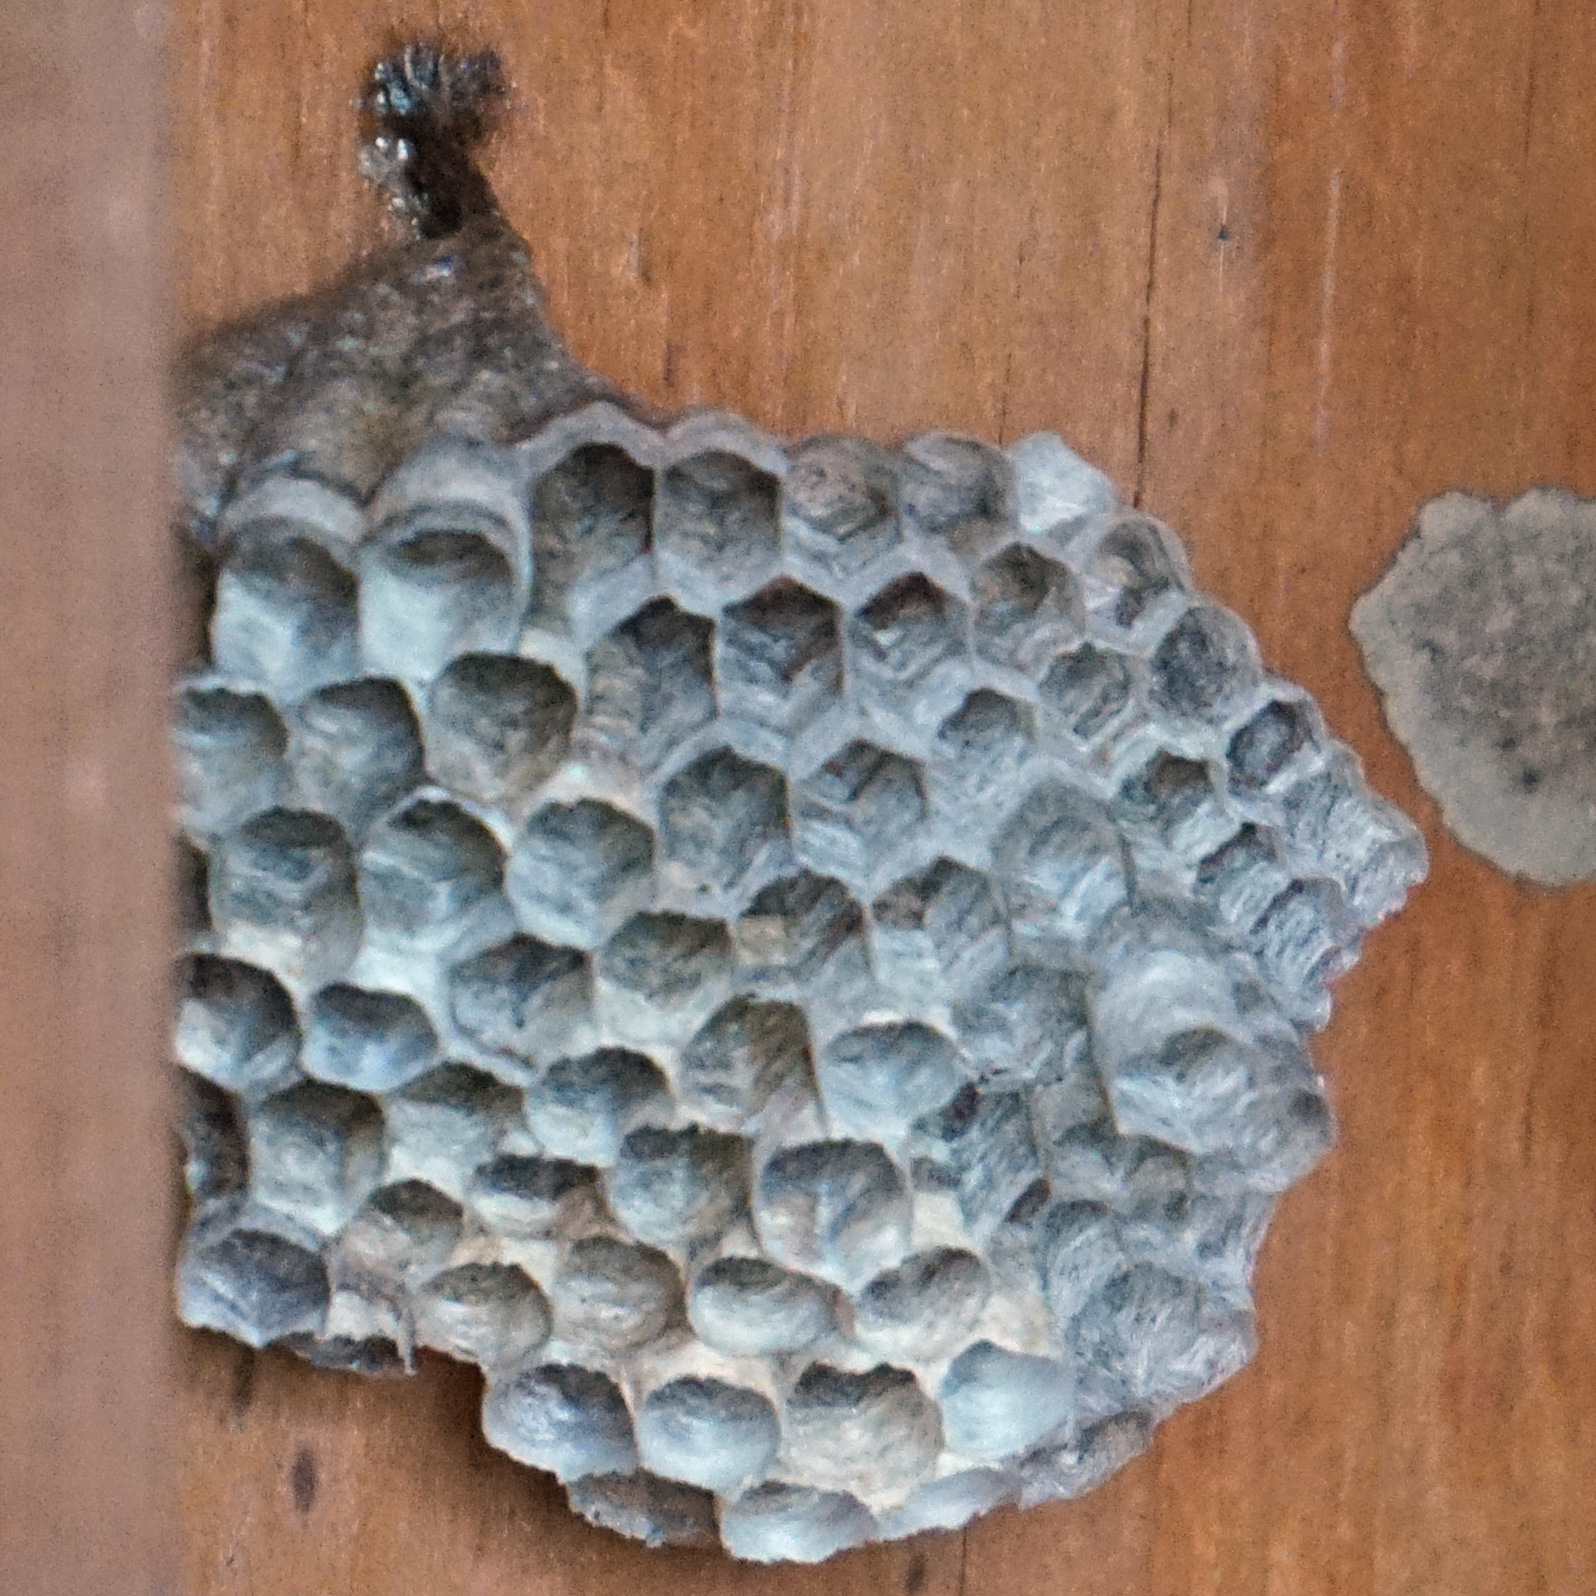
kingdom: Animalia
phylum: Arthropoda
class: Insecta
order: Hymenoptera
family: Eumenidae
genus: Polistes
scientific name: Polistes
